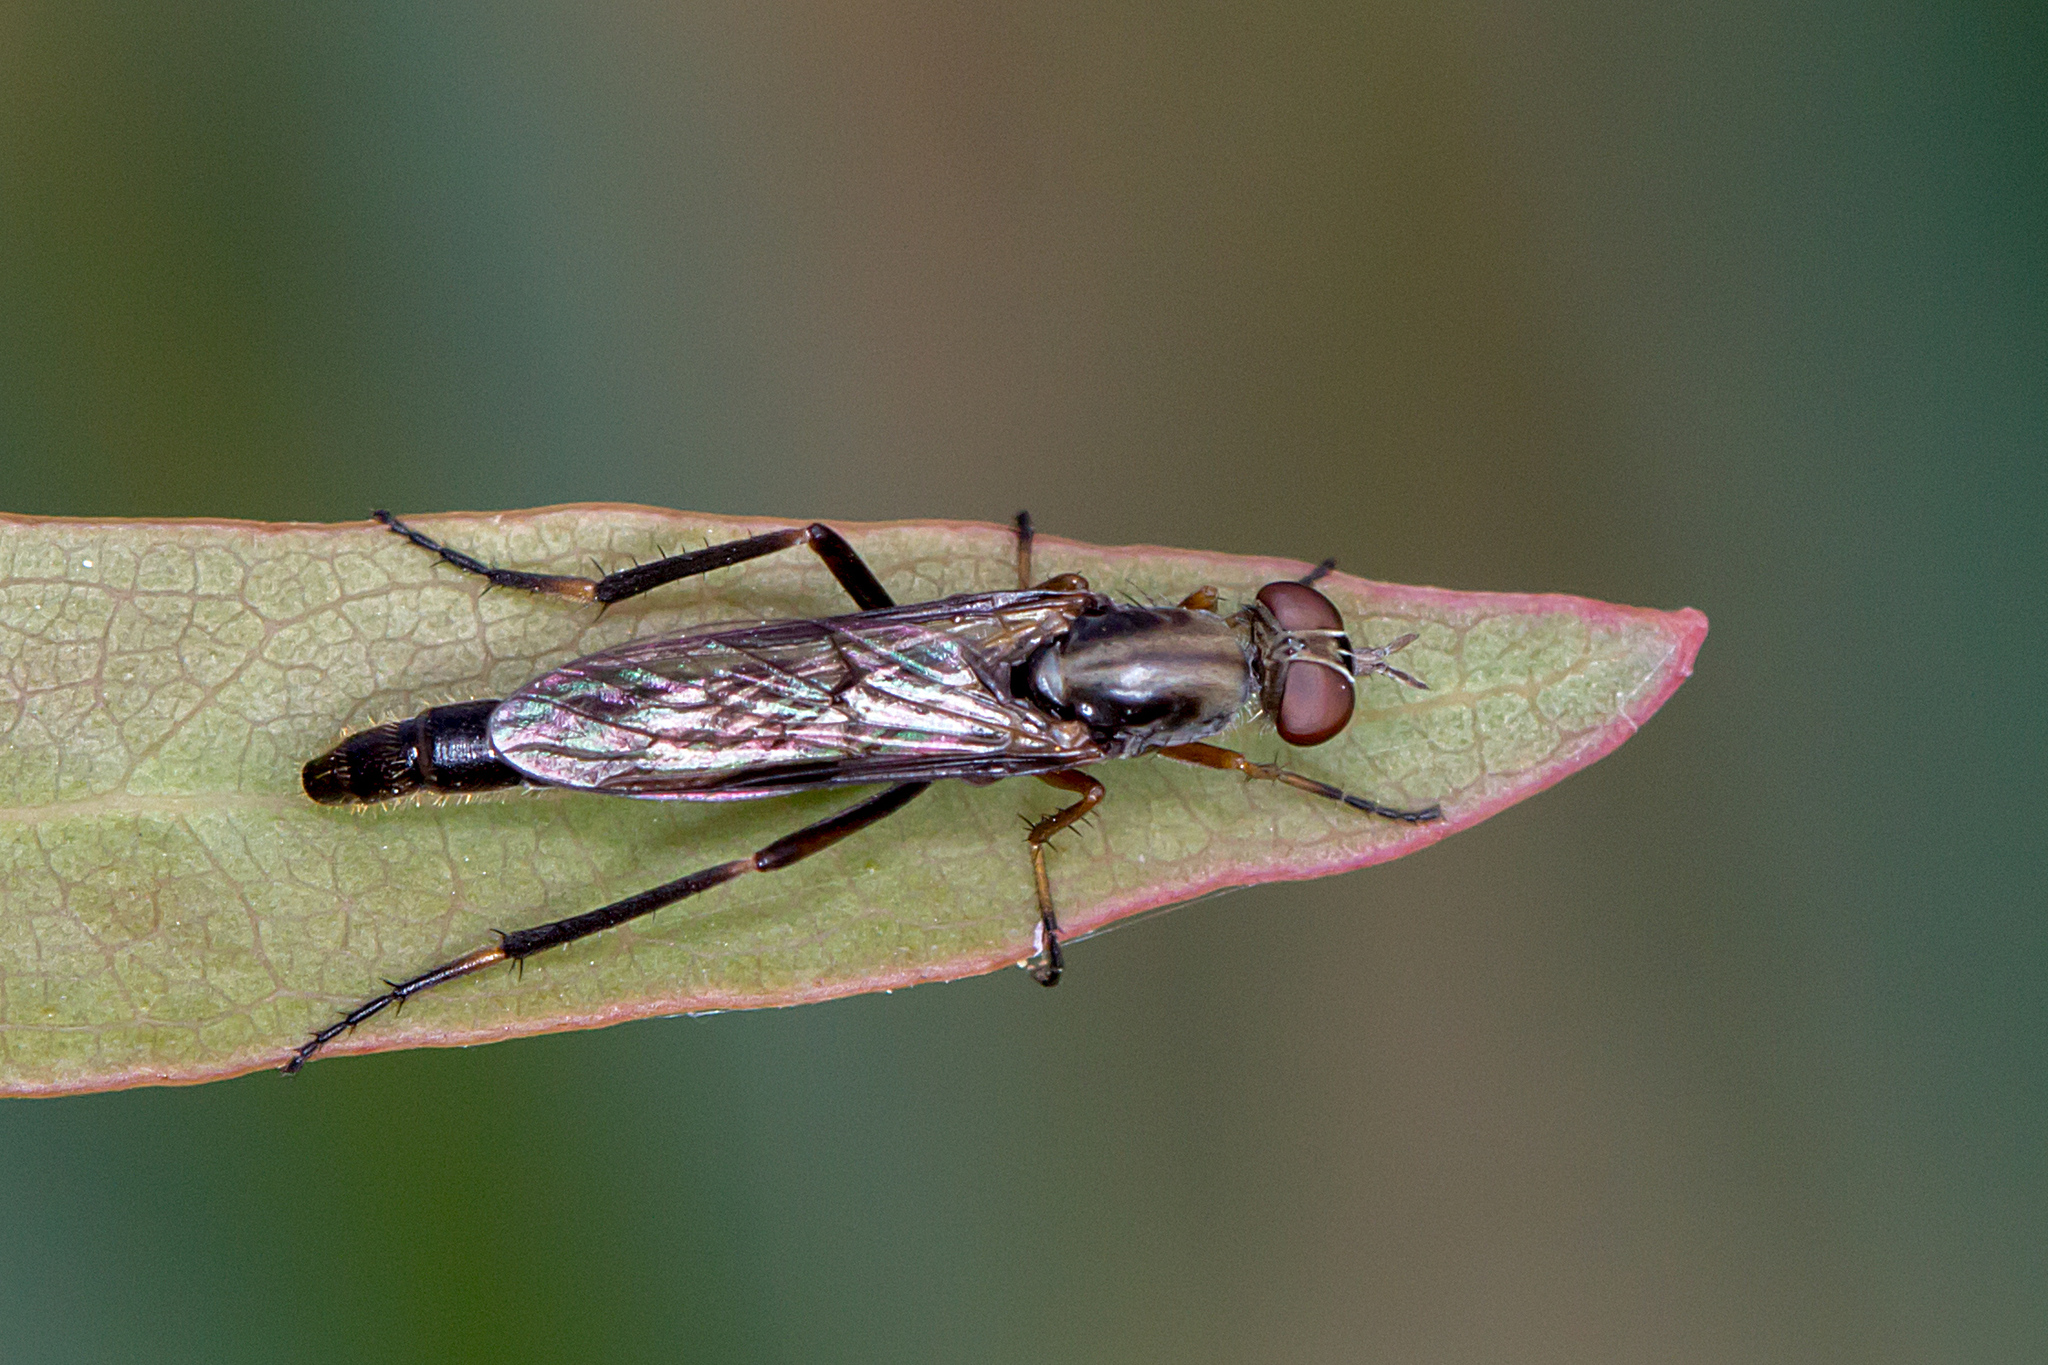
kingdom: Animalia
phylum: Arthropoda
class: Insecta
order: Diptera
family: Therevidae
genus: Taenogerella
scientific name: Taenogerella elizabethae
